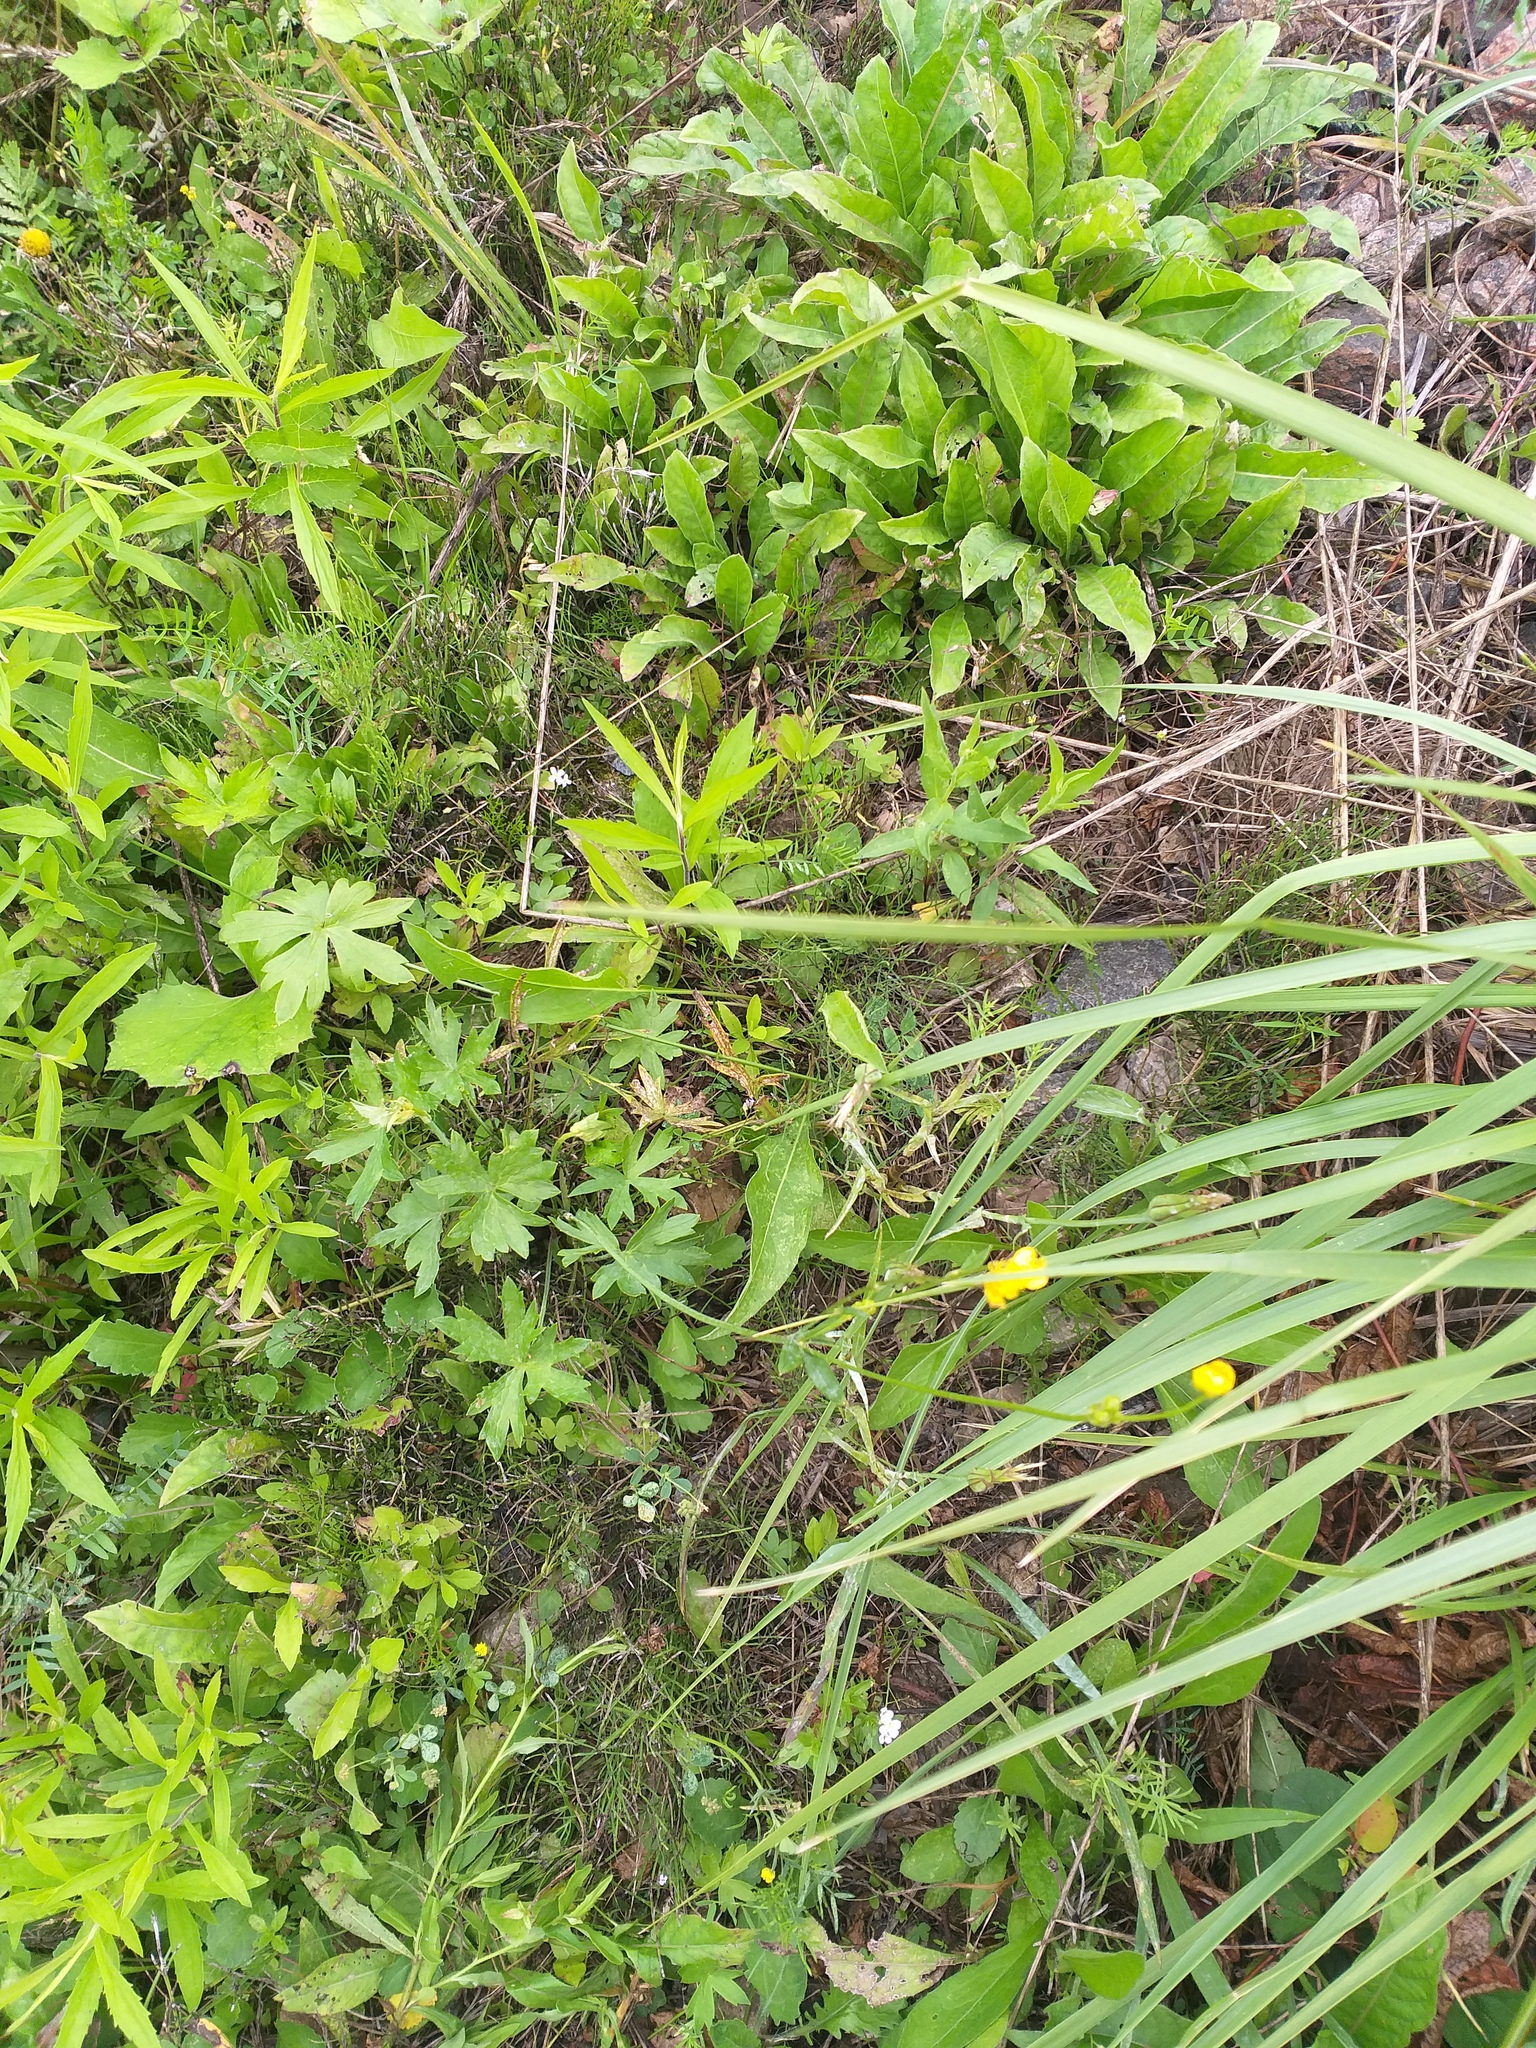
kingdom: Plantae
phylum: Tracheophyta
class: Magnoliopsida
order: Ranunculales
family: Ranunculaceae
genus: Ranunculus
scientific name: Ranunculus acris
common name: Meadow buttercup
